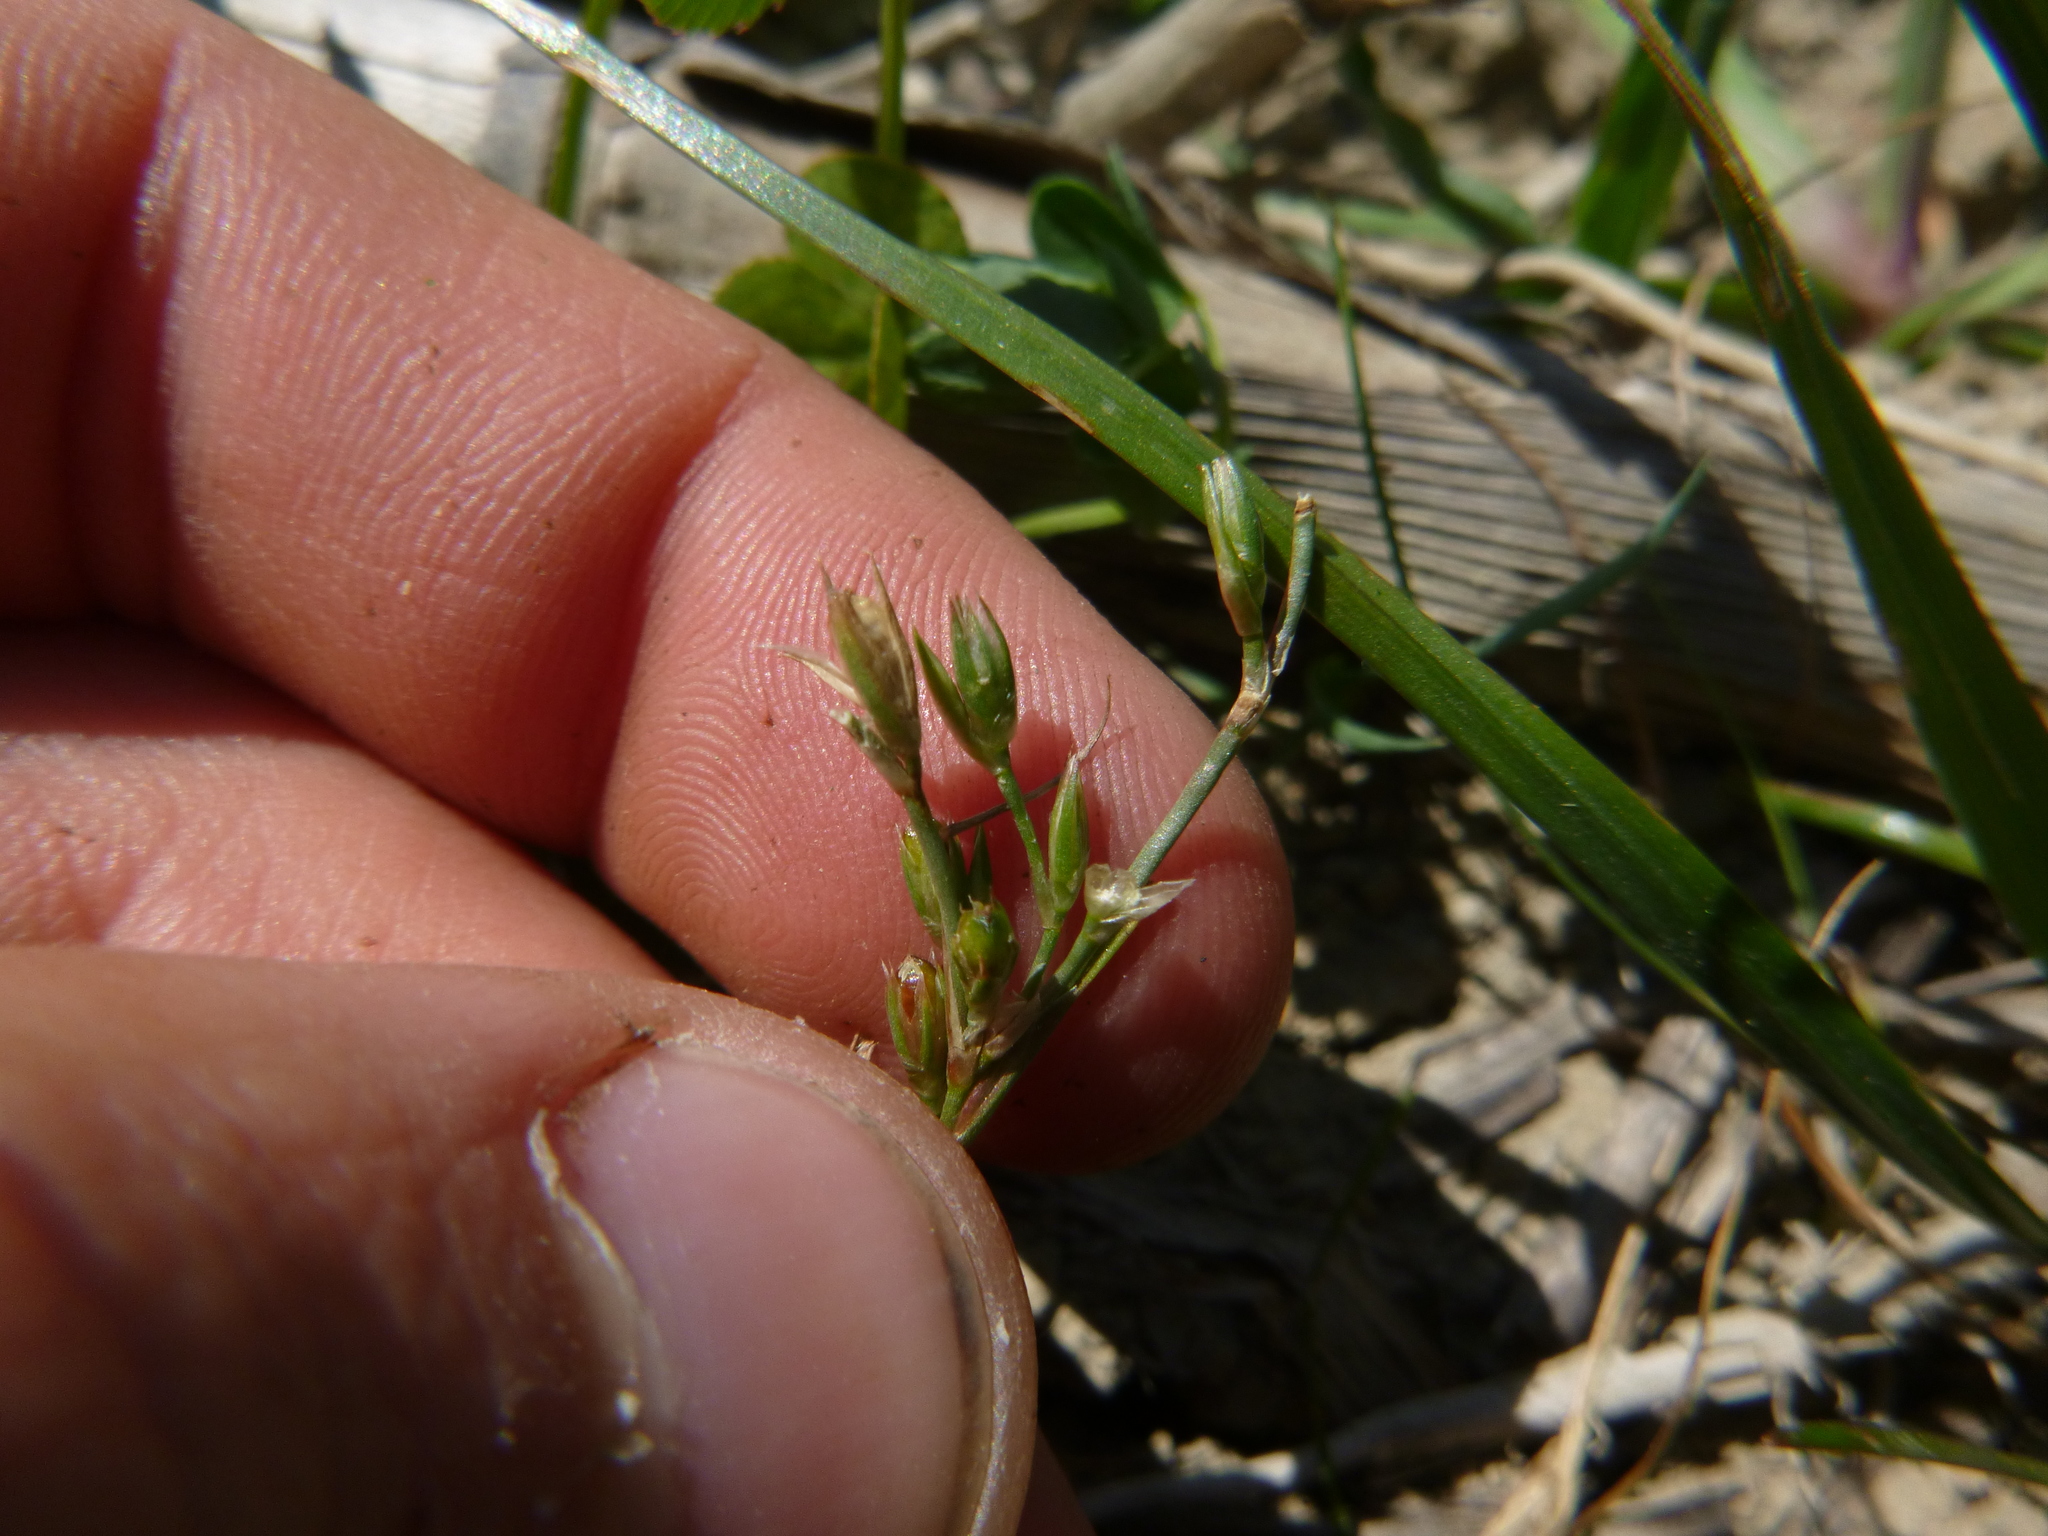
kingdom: Plantae
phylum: Tracheophyta
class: Liliopsida
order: Poales
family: Juncaceae
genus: Juncus
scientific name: Juncus bufonius
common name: Toad rush
